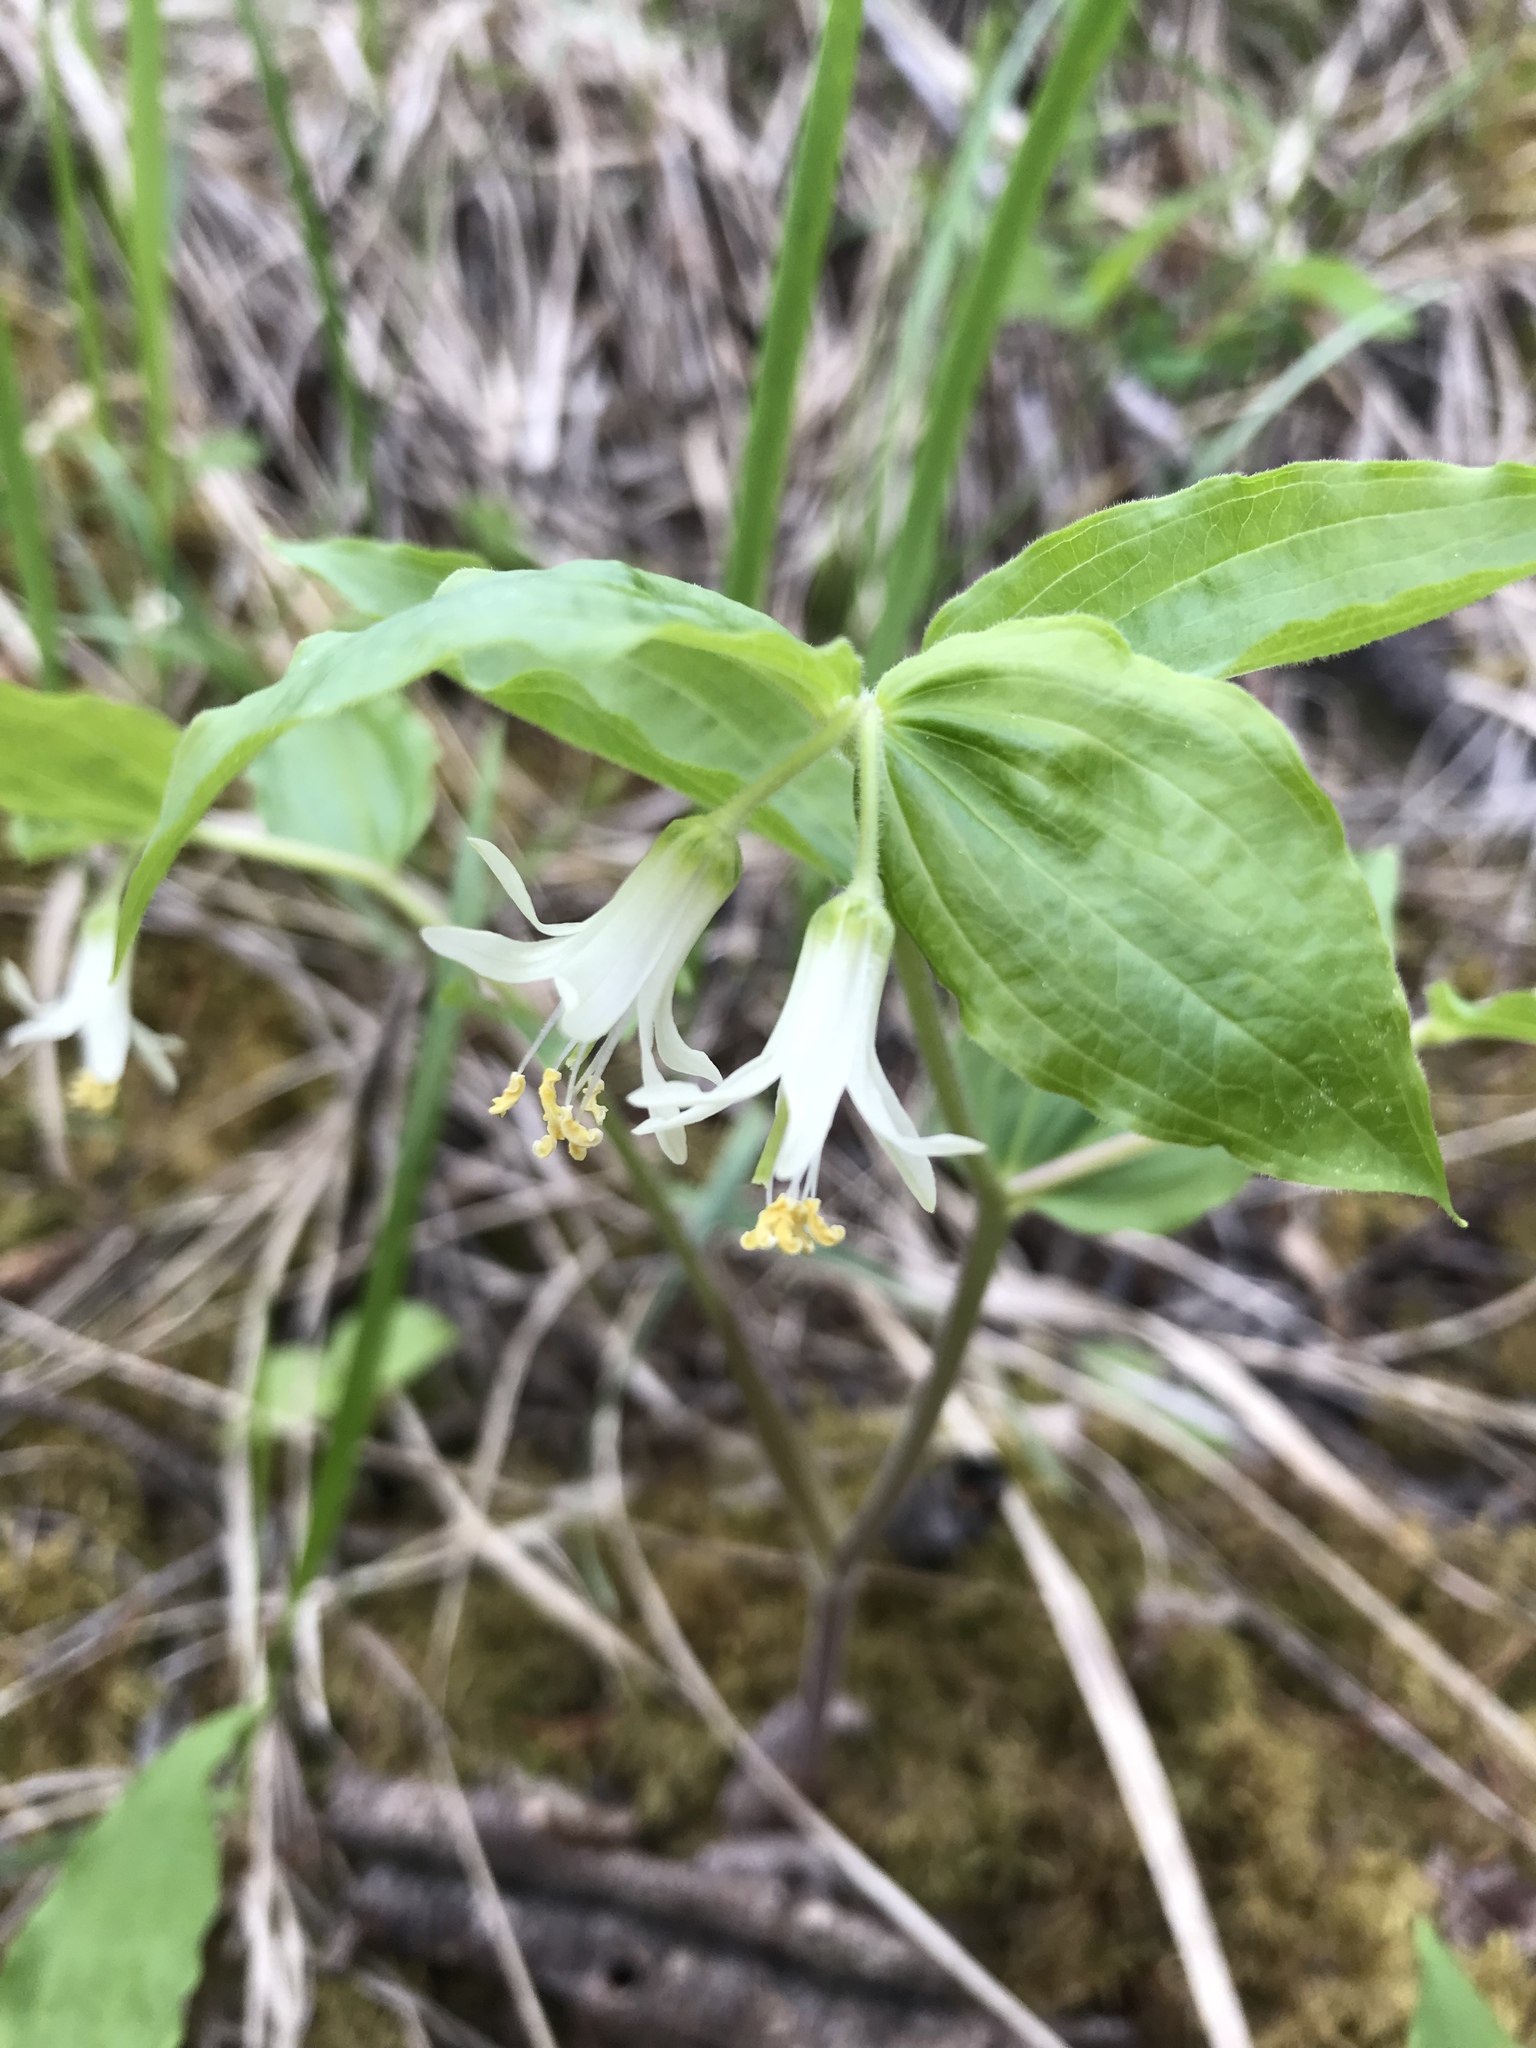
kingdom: Plantae
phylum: Tracheophyta
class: Liliopsida
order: Liliales
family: Liliaceae
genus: Prosartes
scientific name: Prosartes trachycarpa
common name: Rough-fruit fairy-bells
